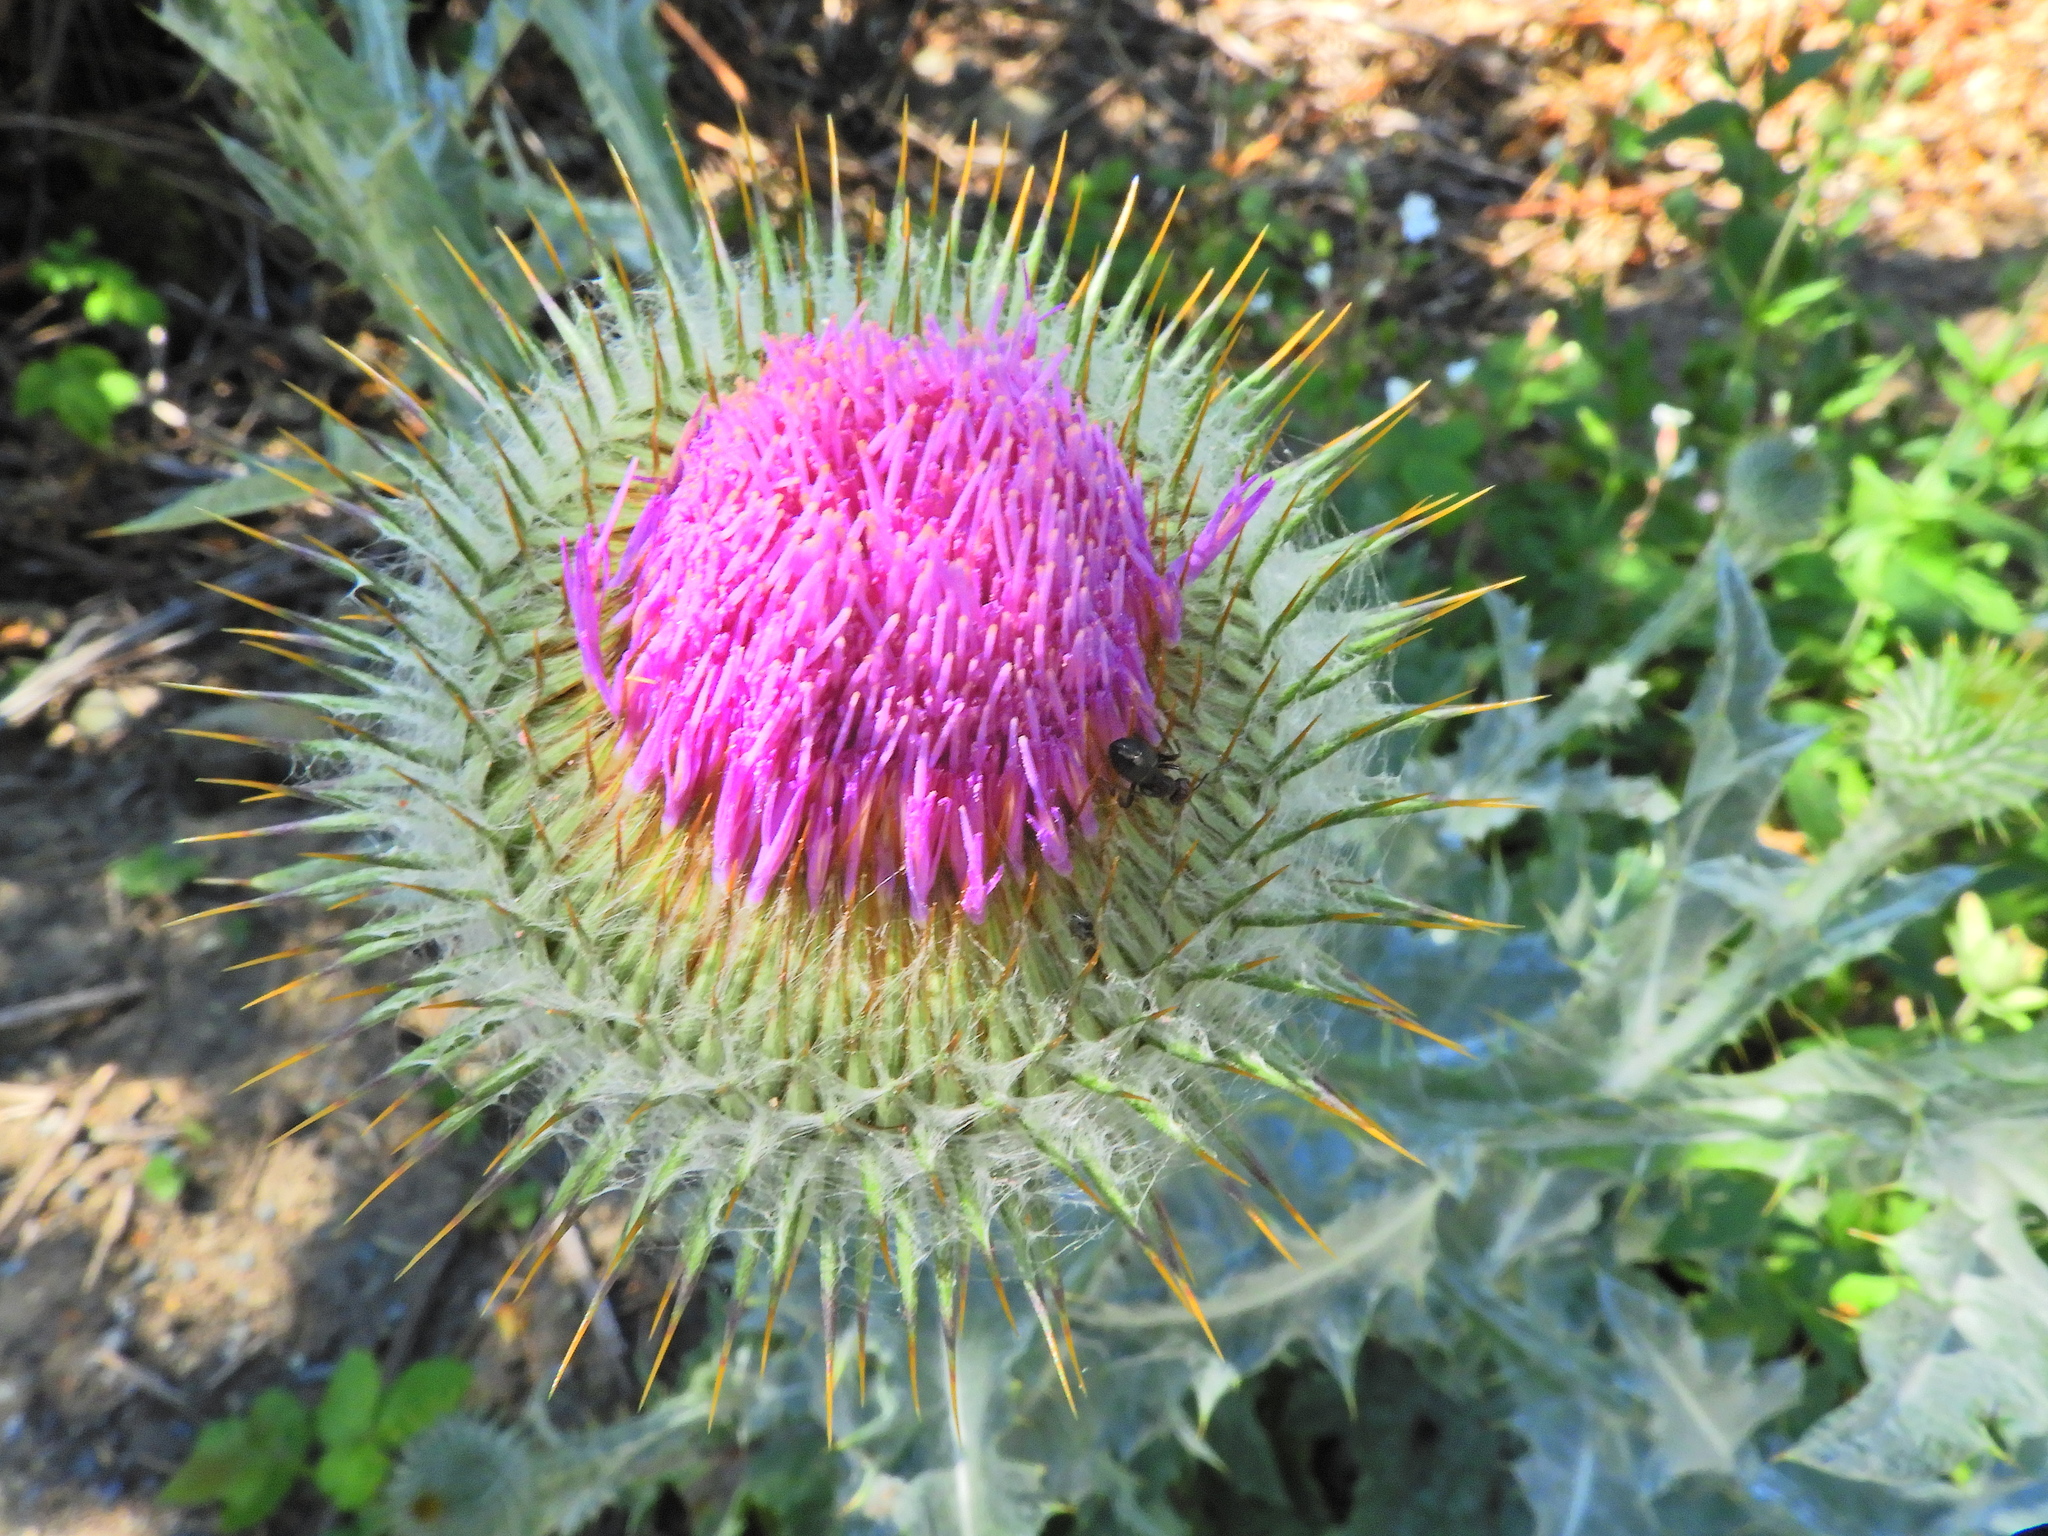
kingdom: Plantae
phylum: Tracheophyta
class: Magnoliopsida
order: Asterales
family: Asteraceae
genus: Onopordum
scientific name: Onopordum acanthium
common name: Scotch thistle
